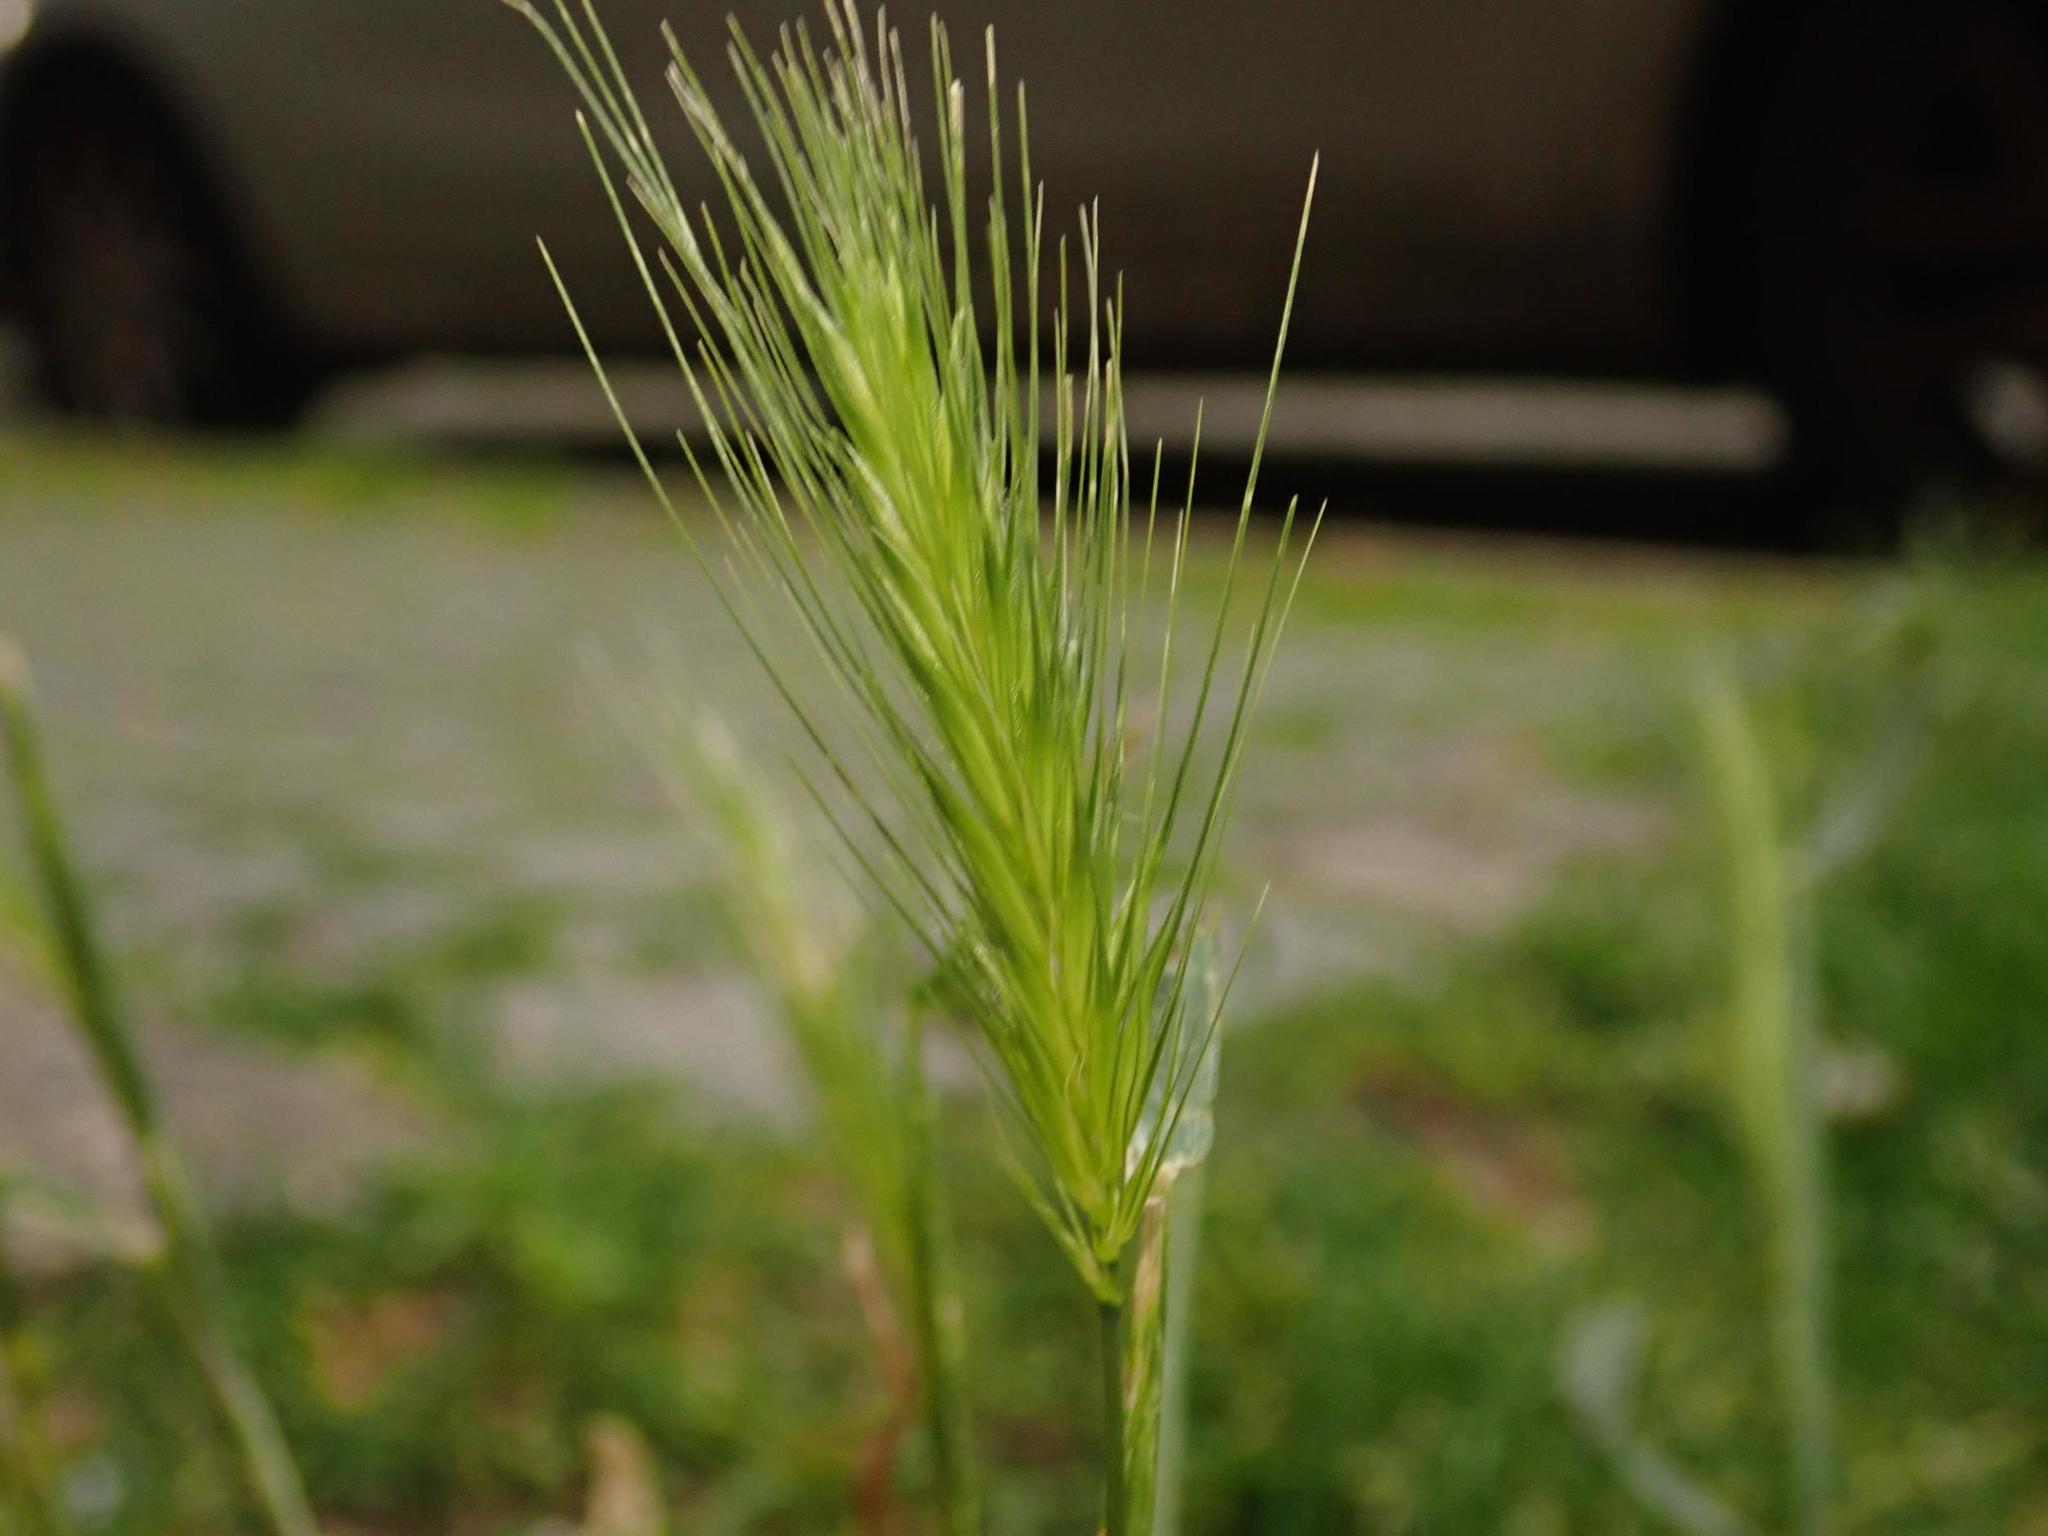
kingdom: Plantae
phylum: Tracheophyta
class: Liliopsida
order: Poales
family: Poaceae
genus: Hordeum
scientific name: Hordeum murinum
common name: Wall barley
